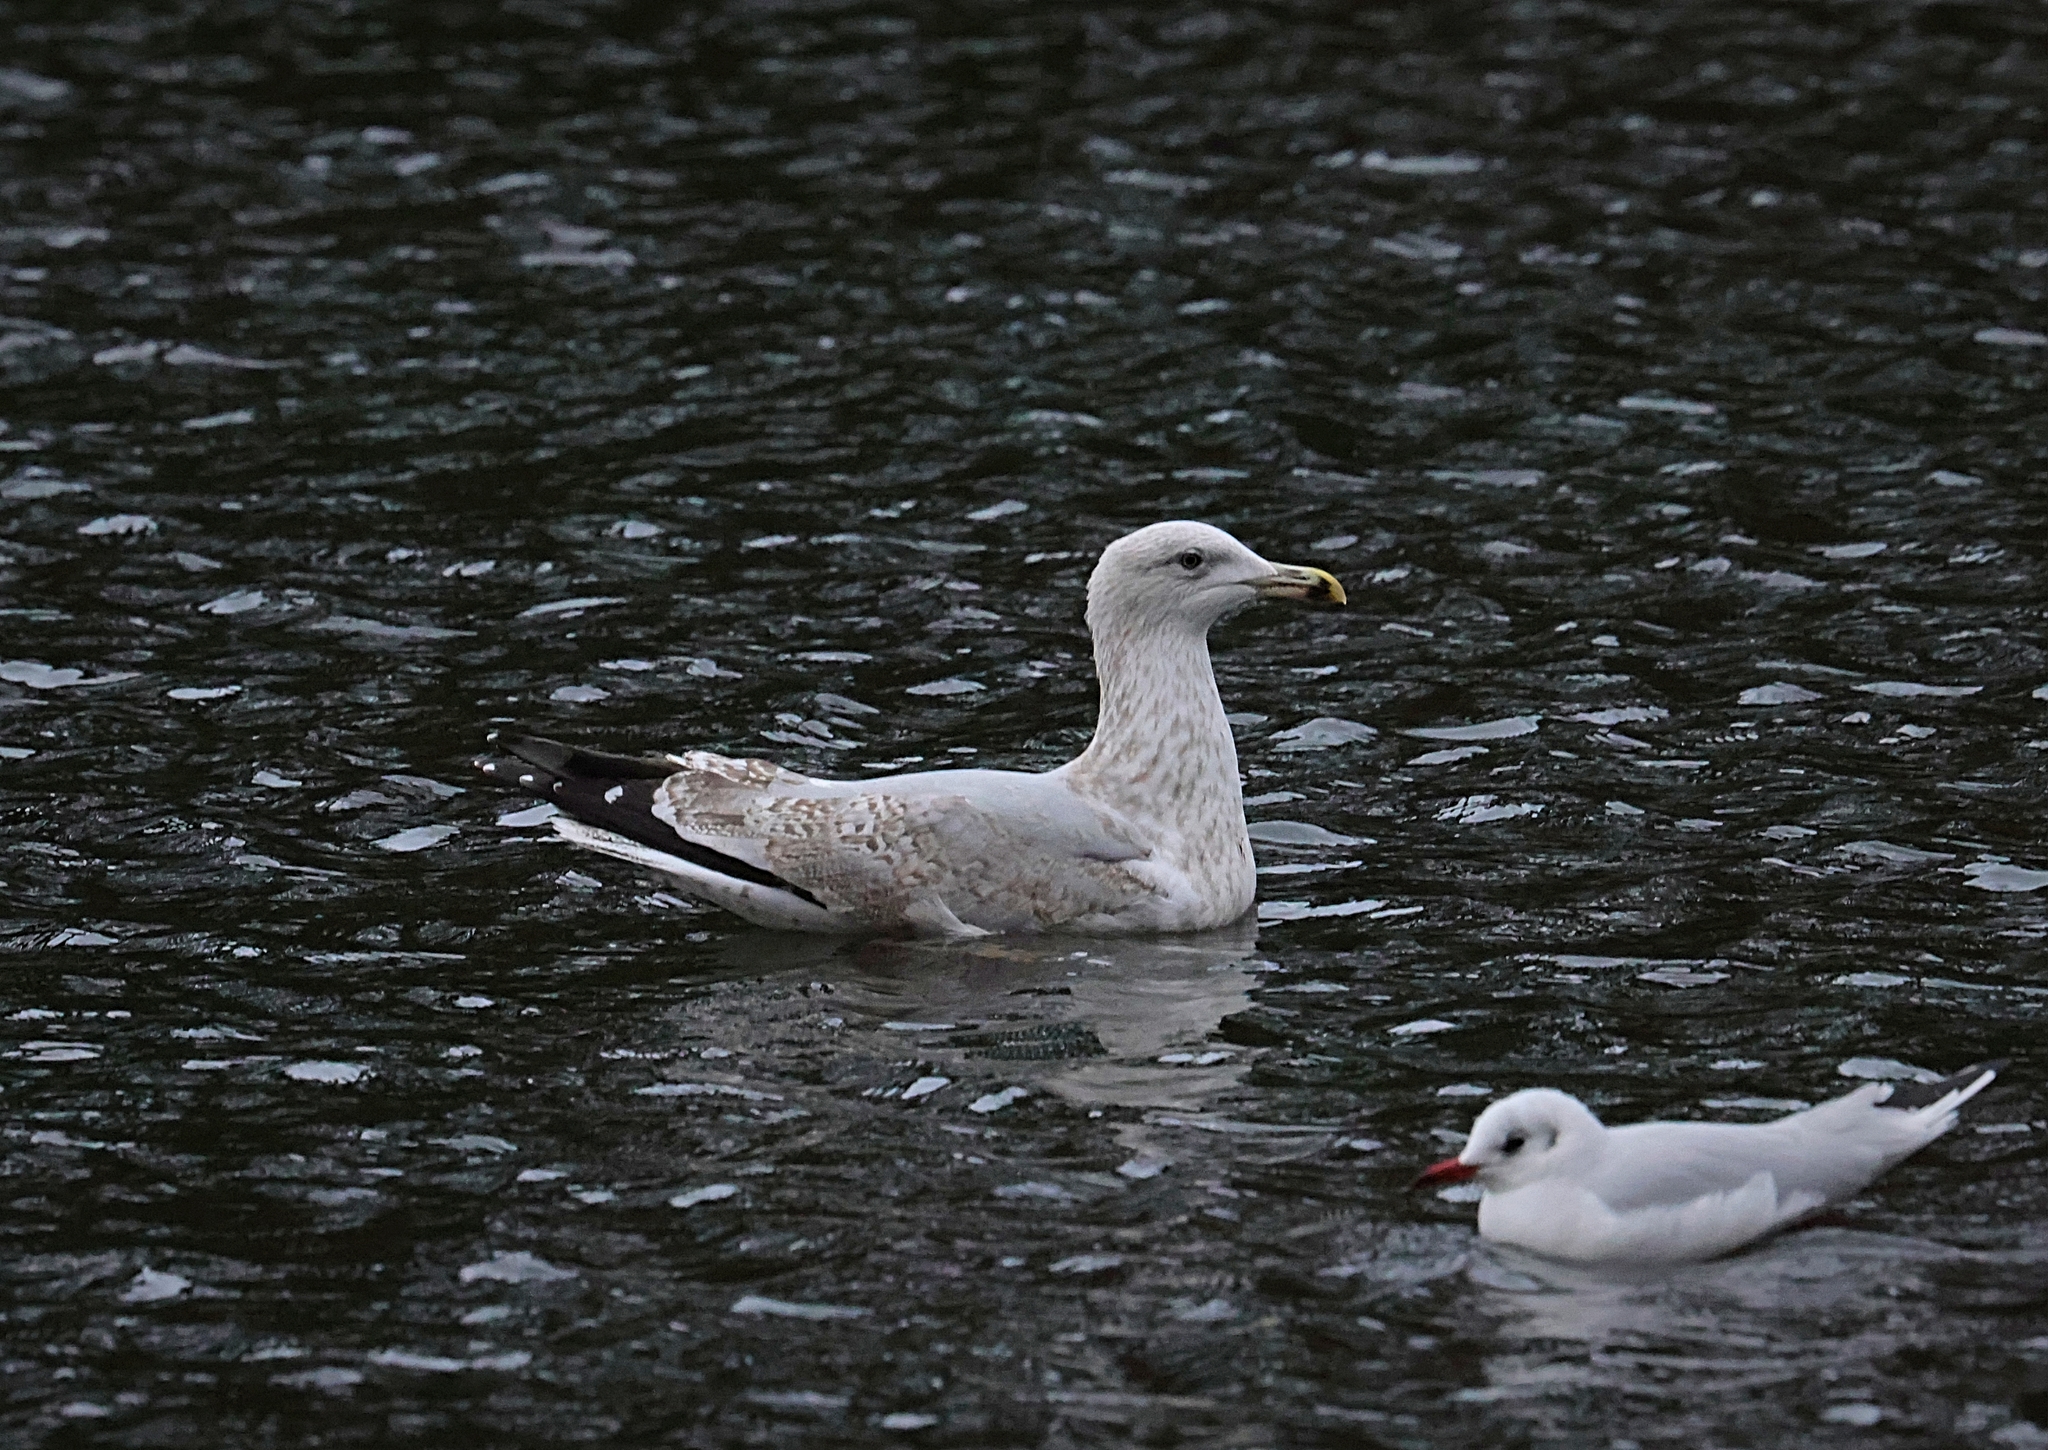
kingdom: Animalia
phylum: Chordata
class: Aves
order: Charadriiformes
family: Laridae
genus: Larus
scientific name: Larus argentatus
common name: Herring gull
